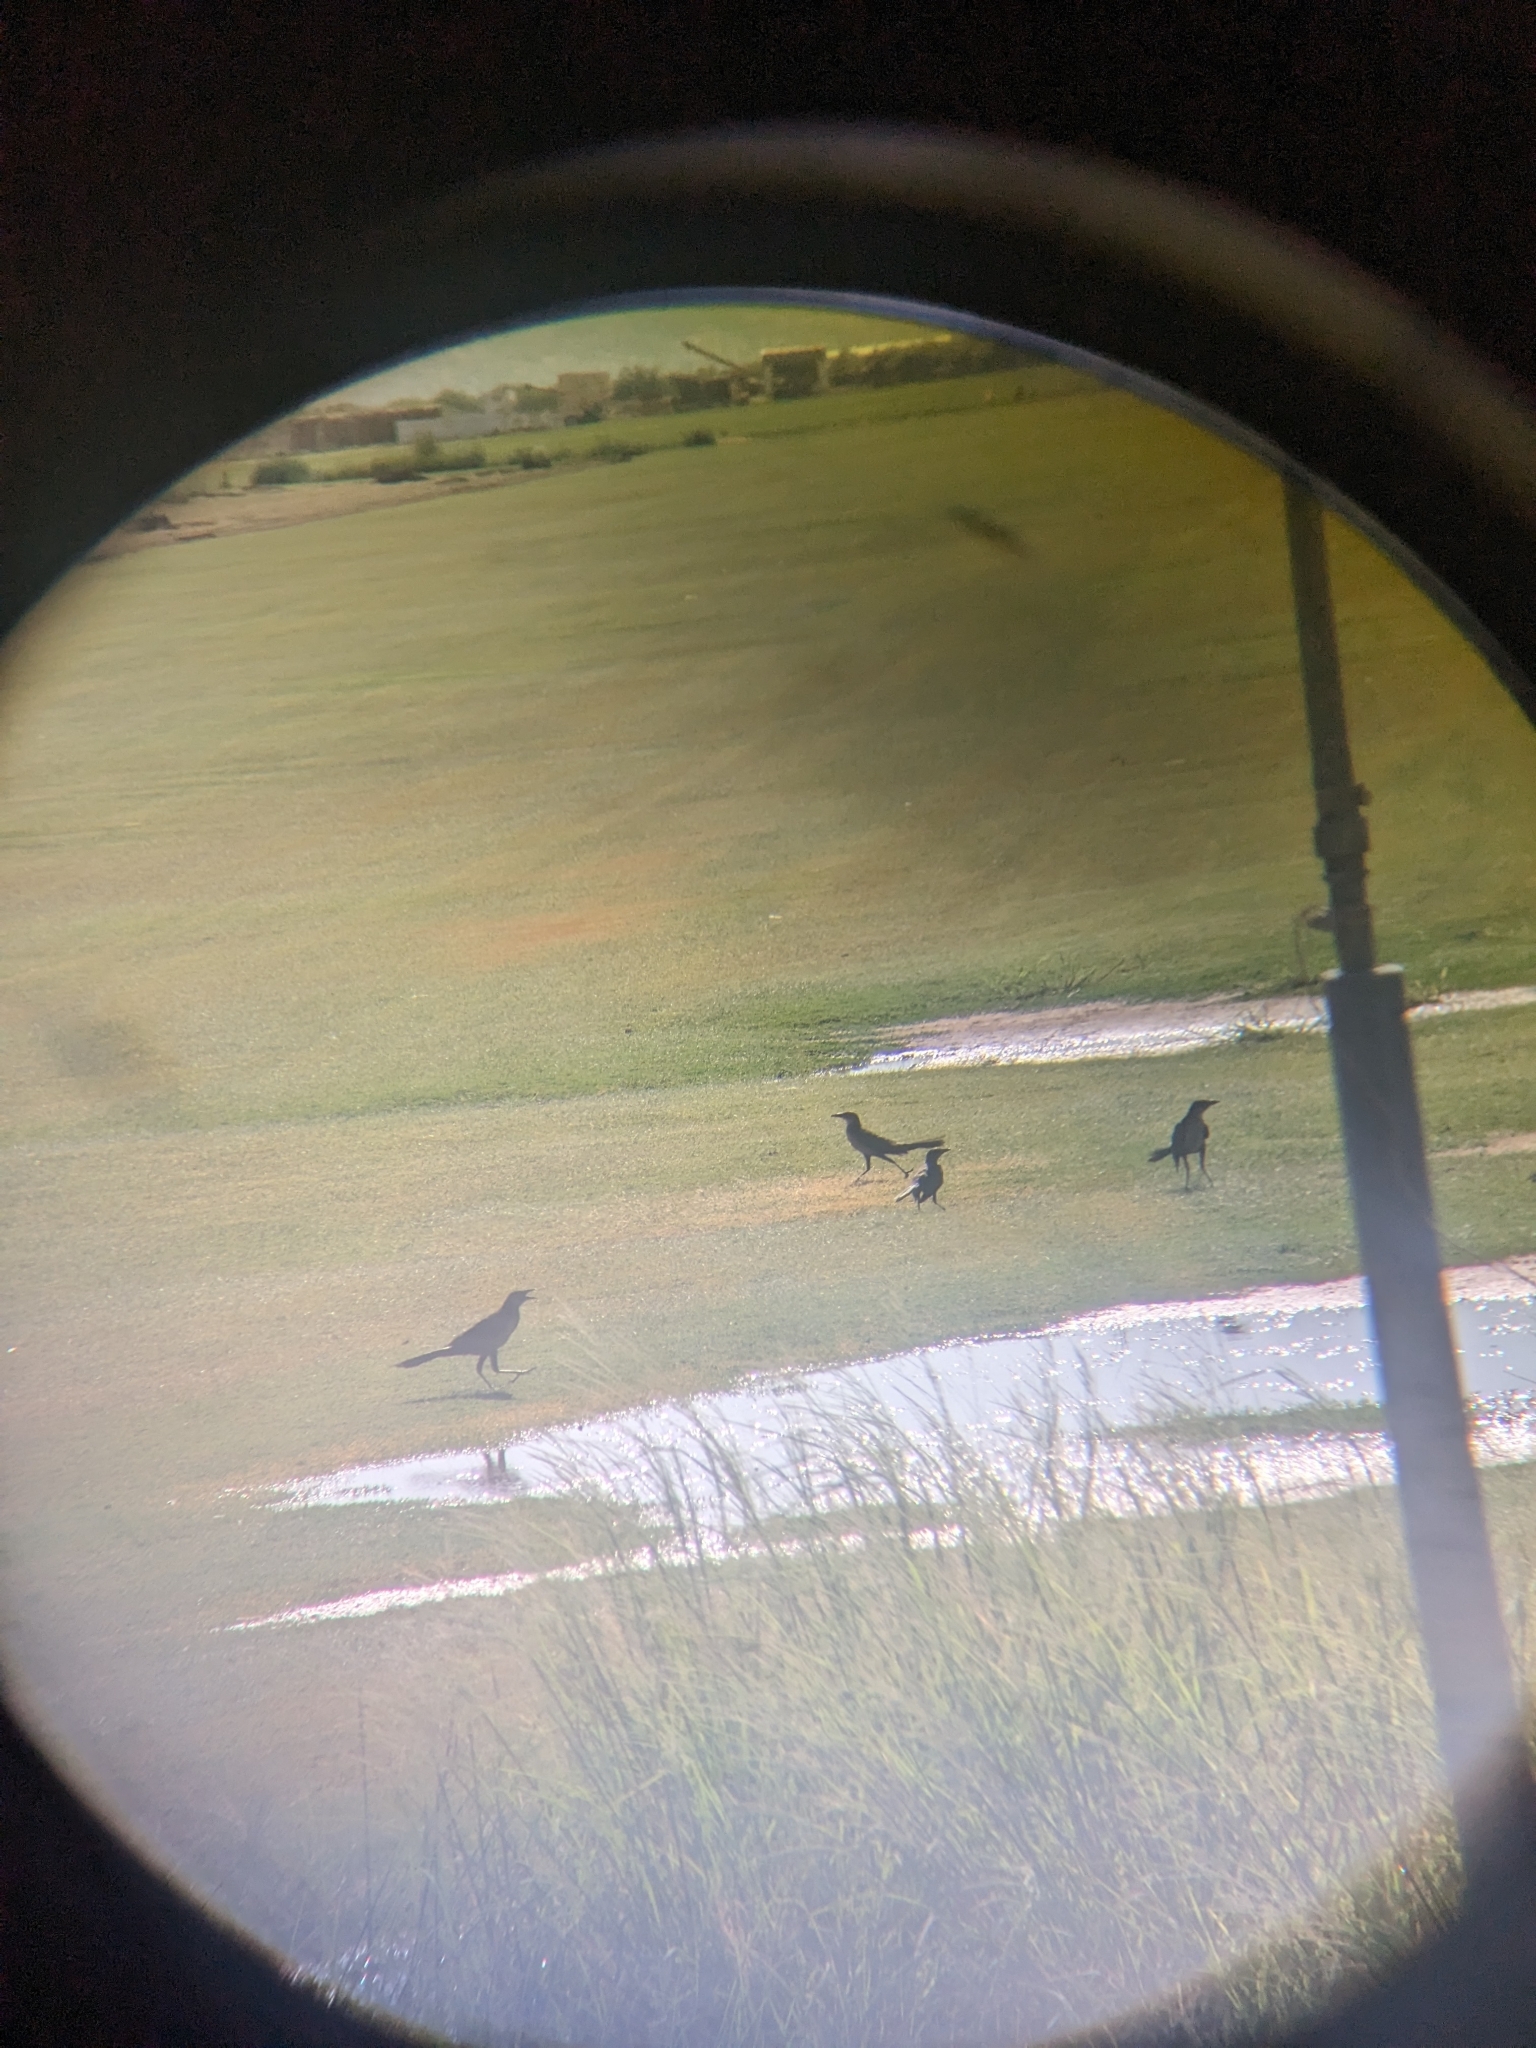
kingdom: Animalia
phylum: Chordata
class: Aves
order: Passeriformes
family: Icteridae
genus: Quiscalus
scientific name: Quiscalus mexicanus
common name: Great-tailed grackle
